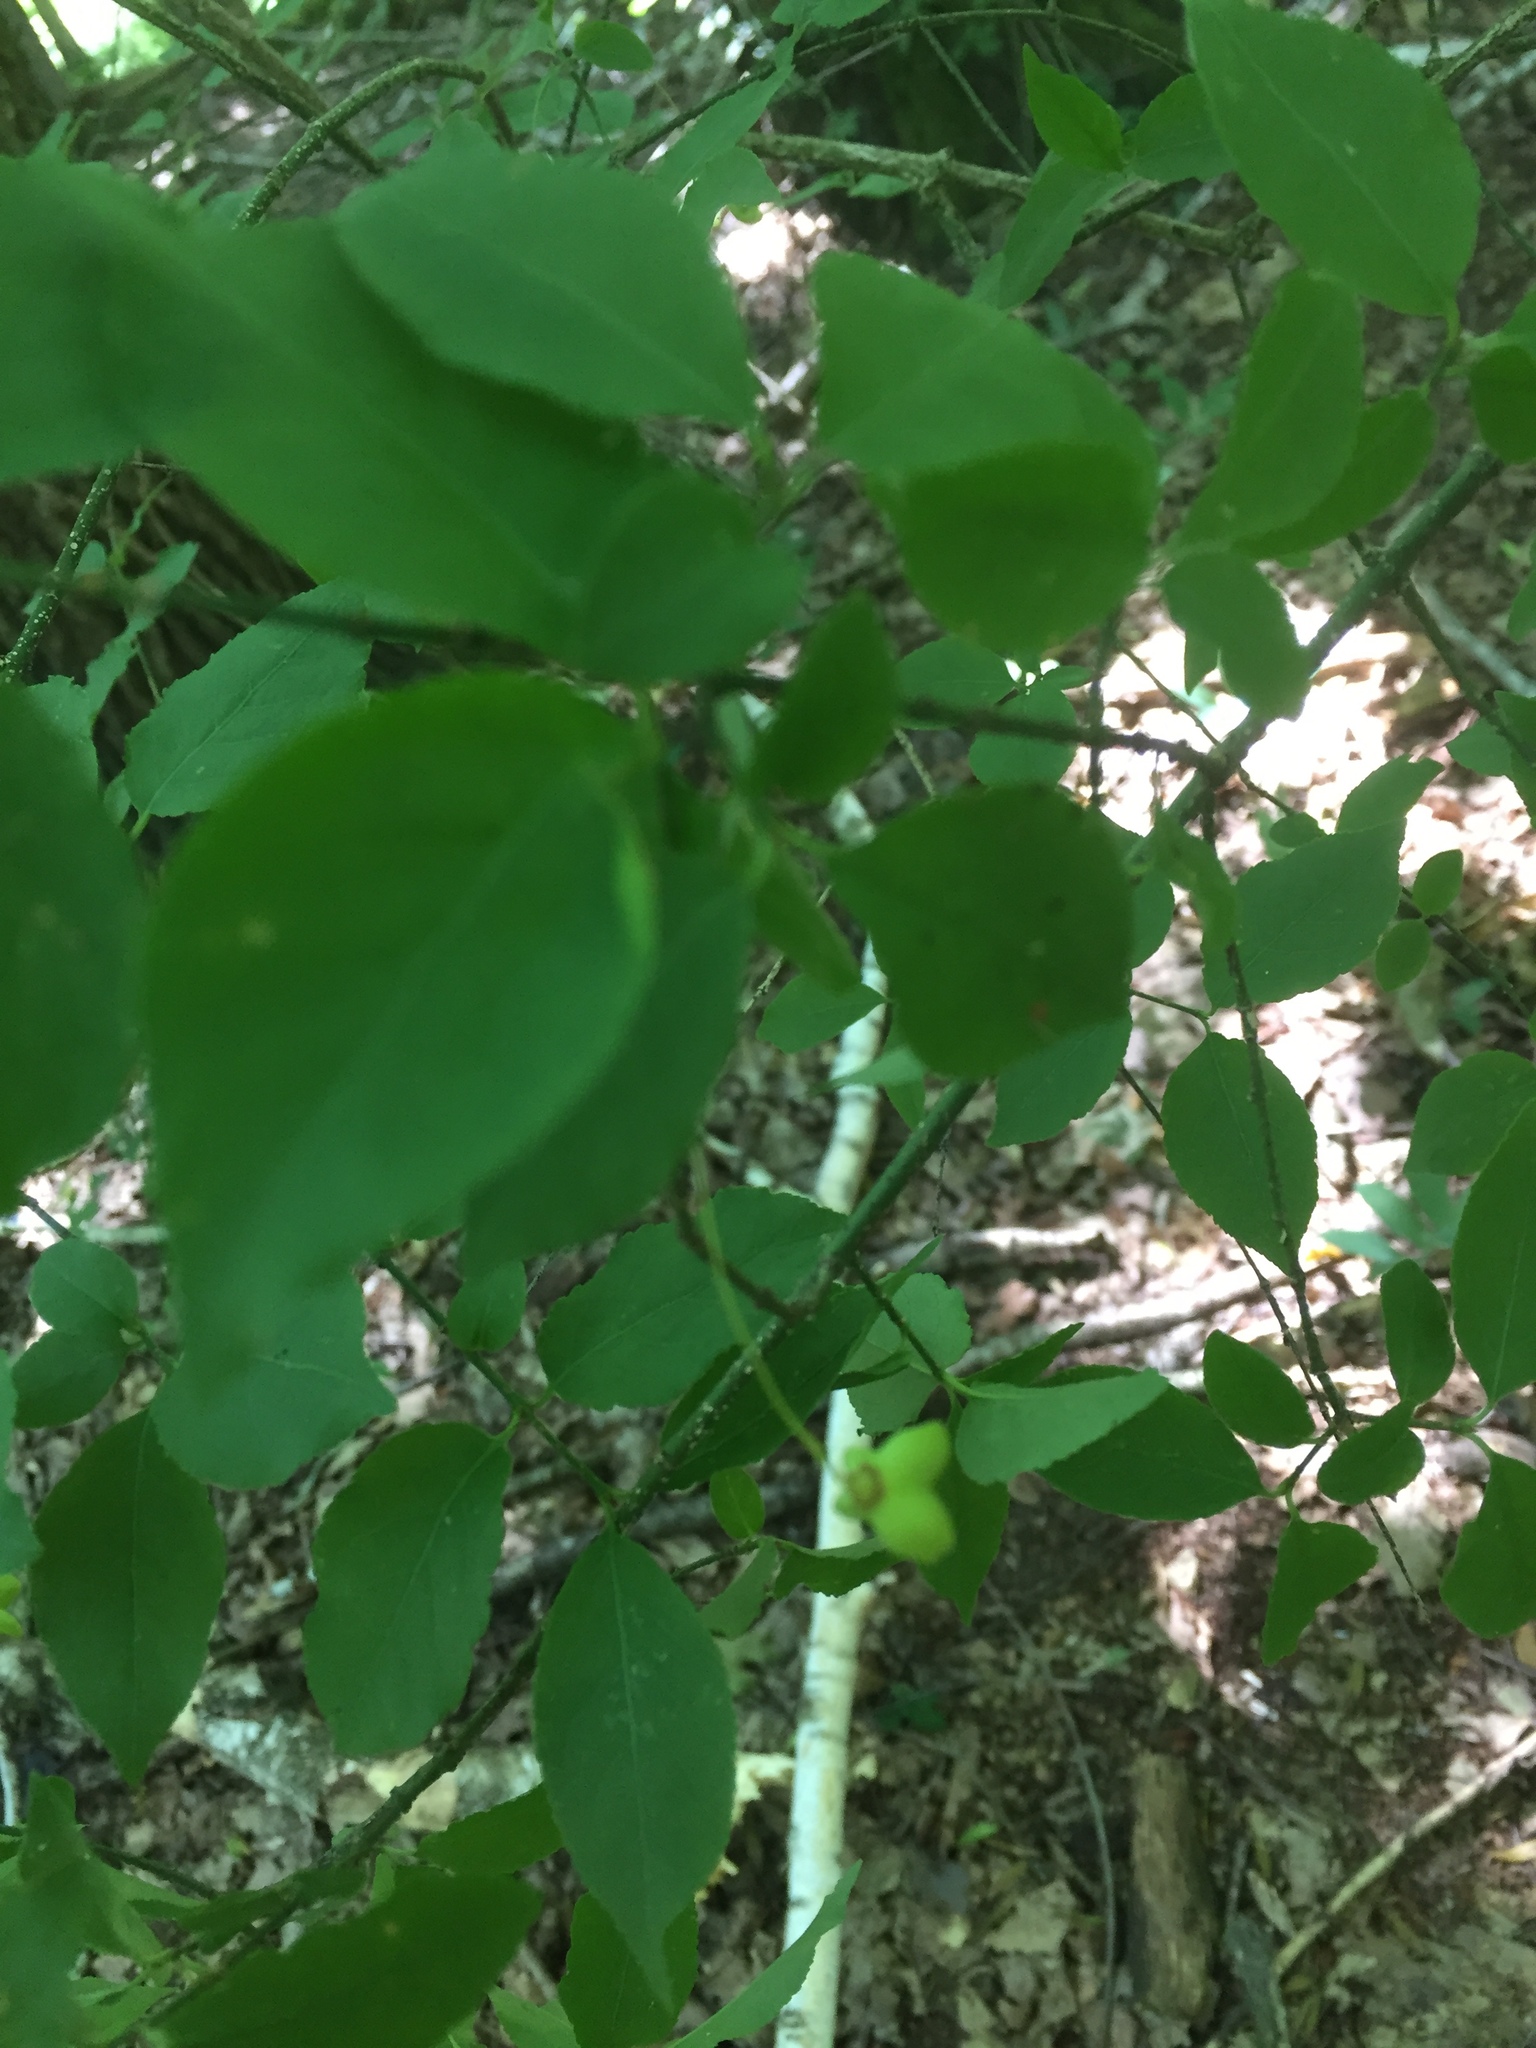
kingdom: Plantae
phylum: Tracheophyta
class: Magnoliopsida
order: Celastrales
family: Celastraceae
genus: Euonymus
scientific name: Euonymus verrucosus
